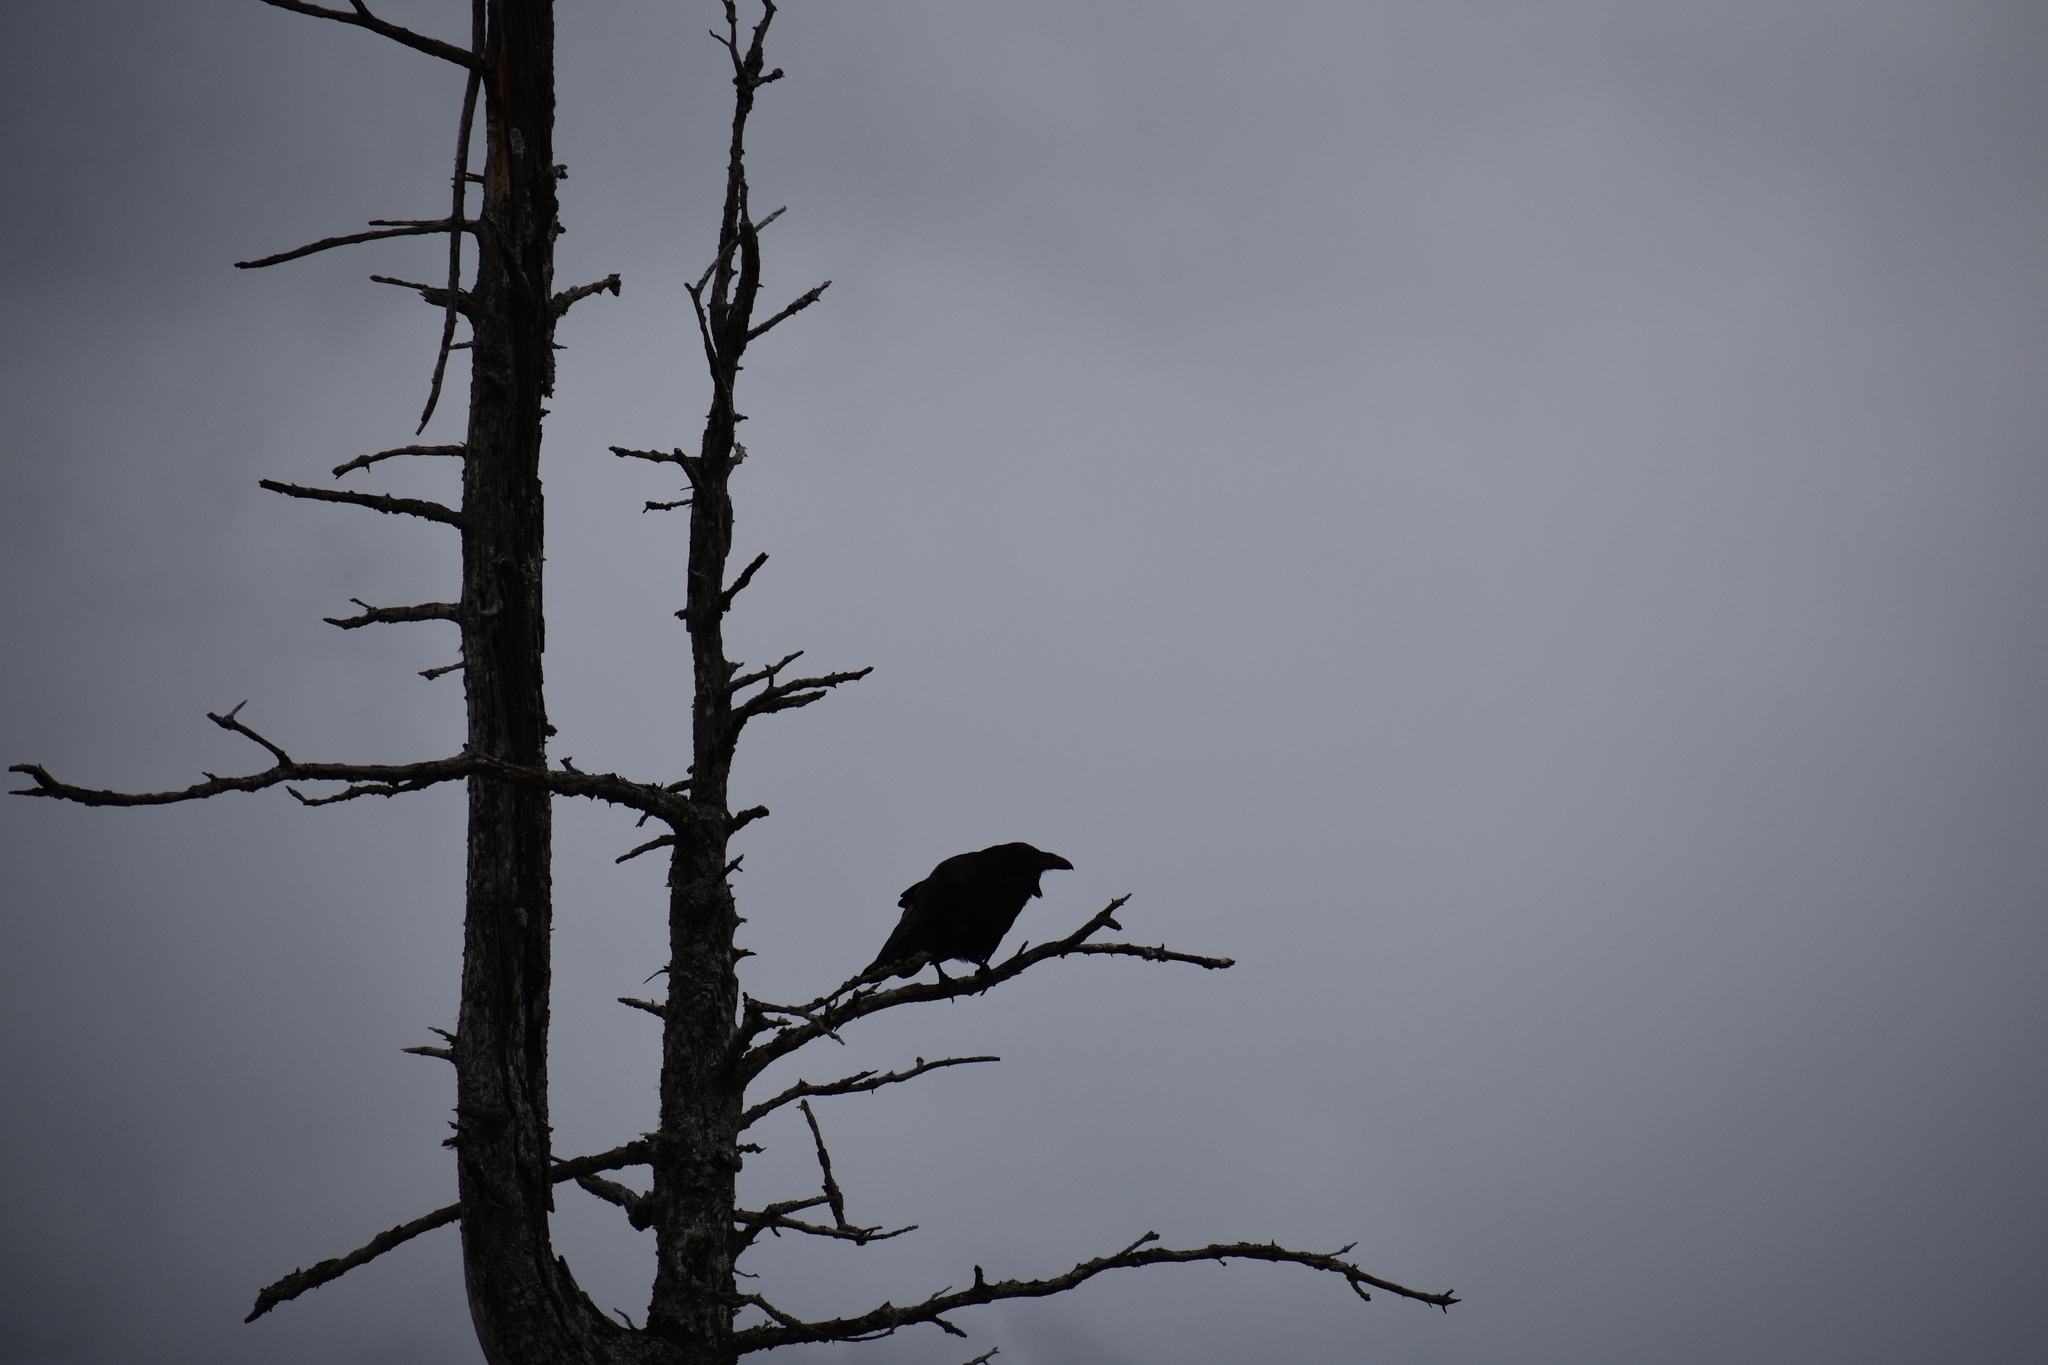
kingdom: Animalia
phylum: Chordata
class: Aves
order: Passeriformes
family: Corvidae
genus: Corvus
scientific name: Corvus corax
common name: Common raven
